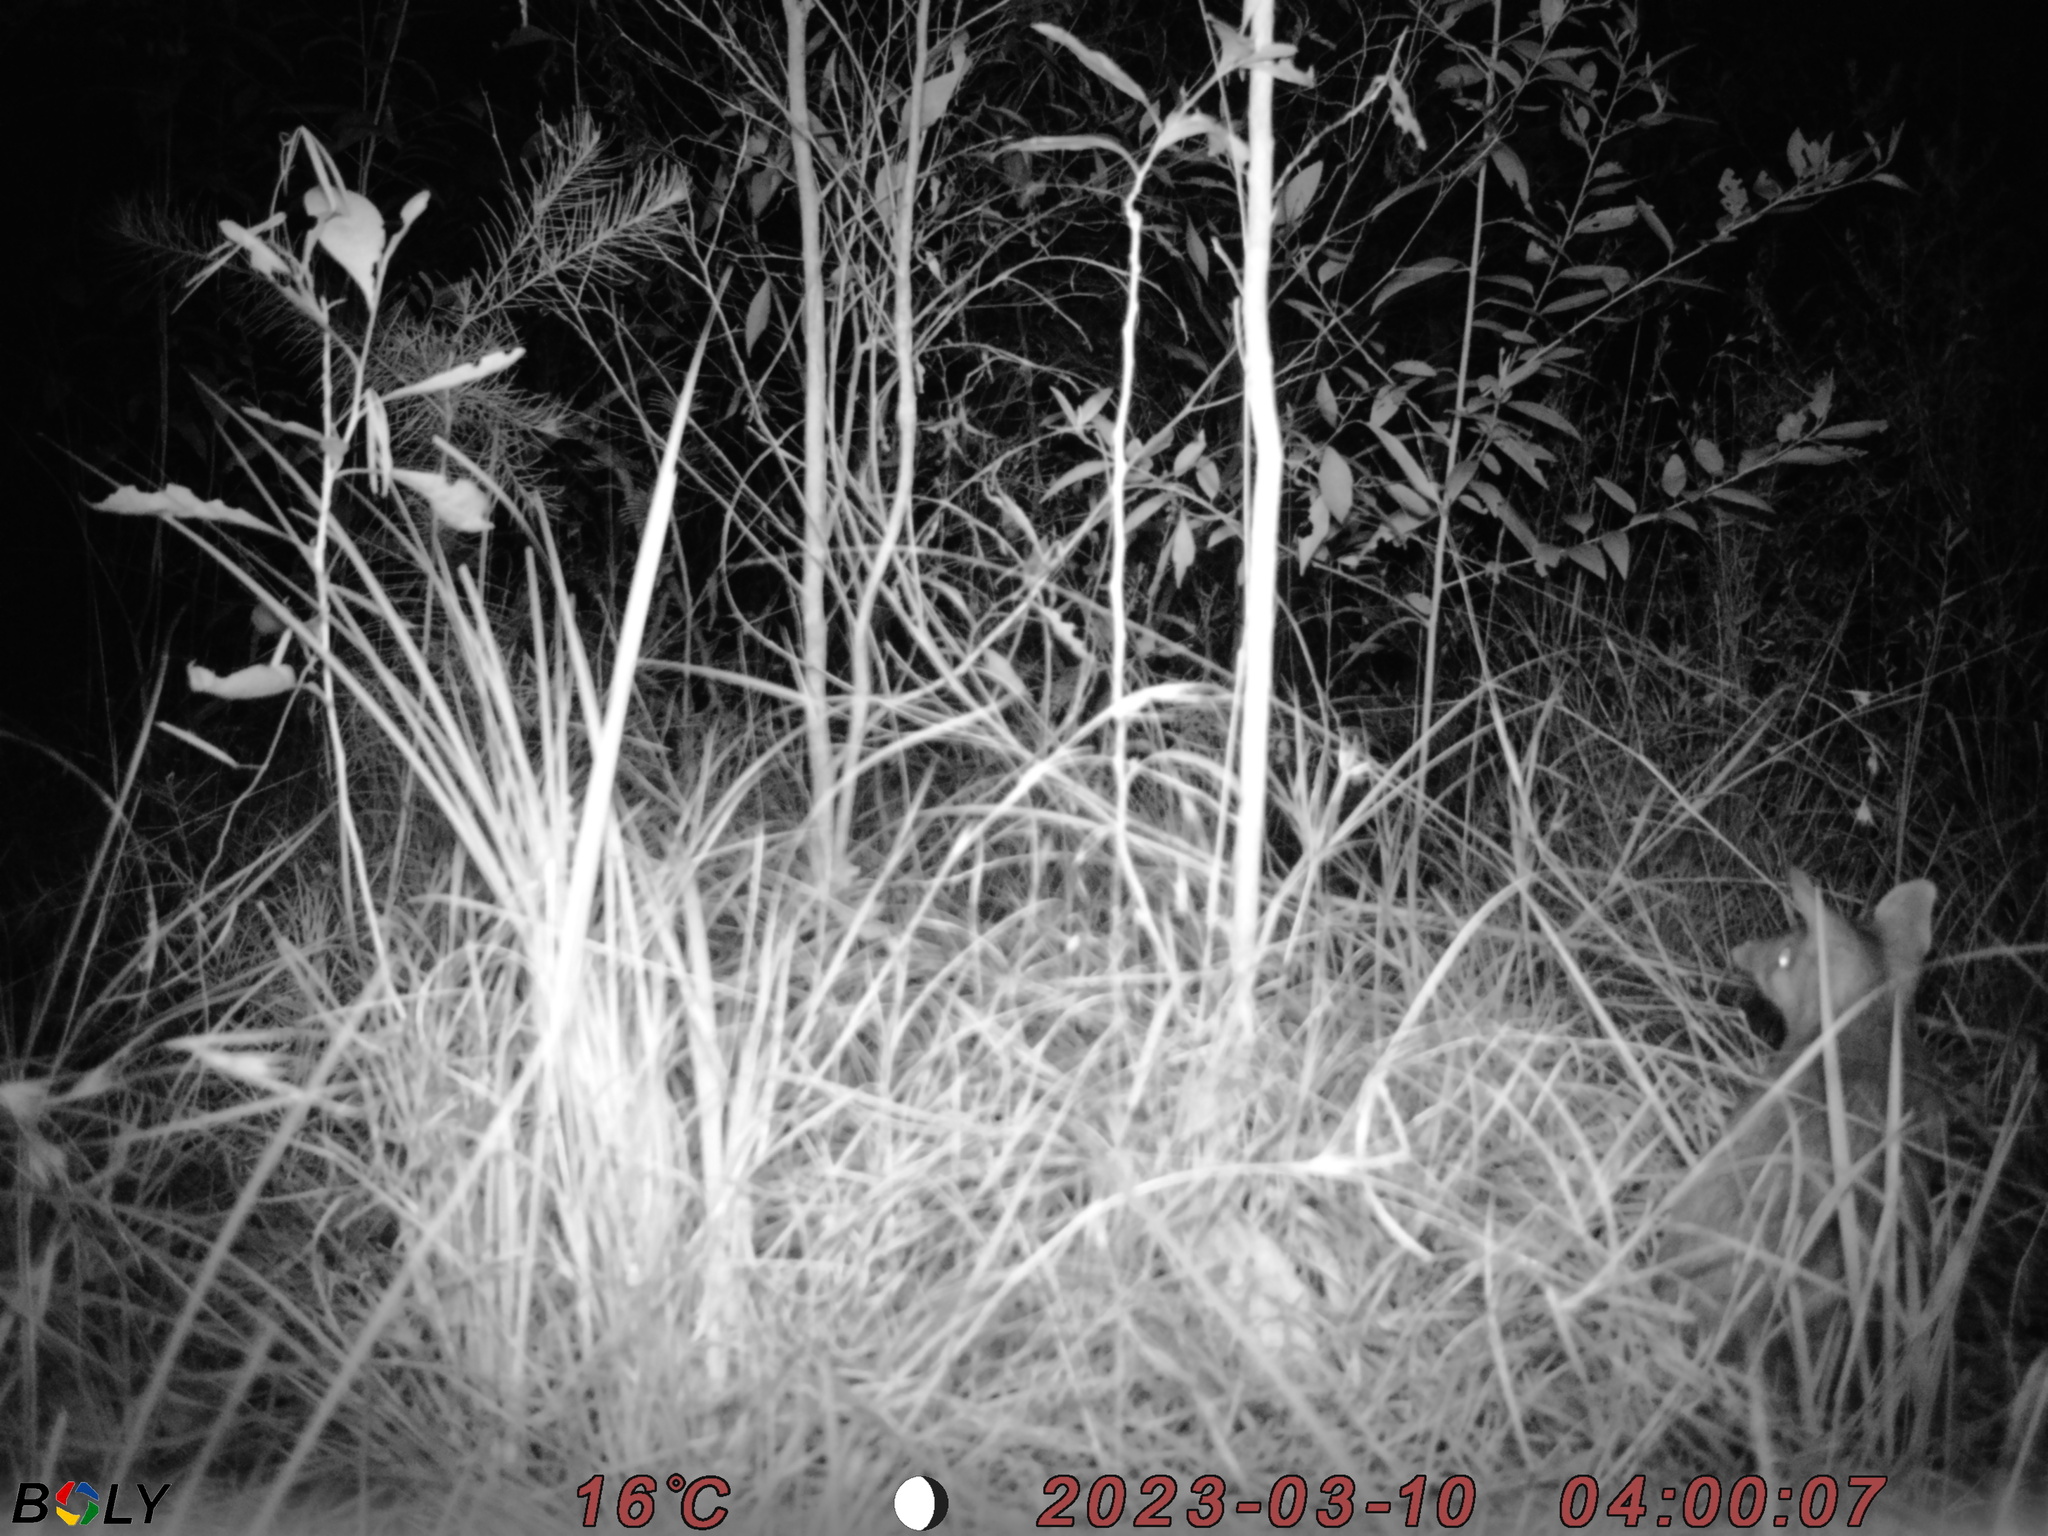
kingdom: Animalia
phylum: Chordata
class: Mammalia
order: Peramelemorphia
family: Peramelidae
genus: Perameles
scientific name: Perameles nasuta
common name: Long-nosed bandicoot
